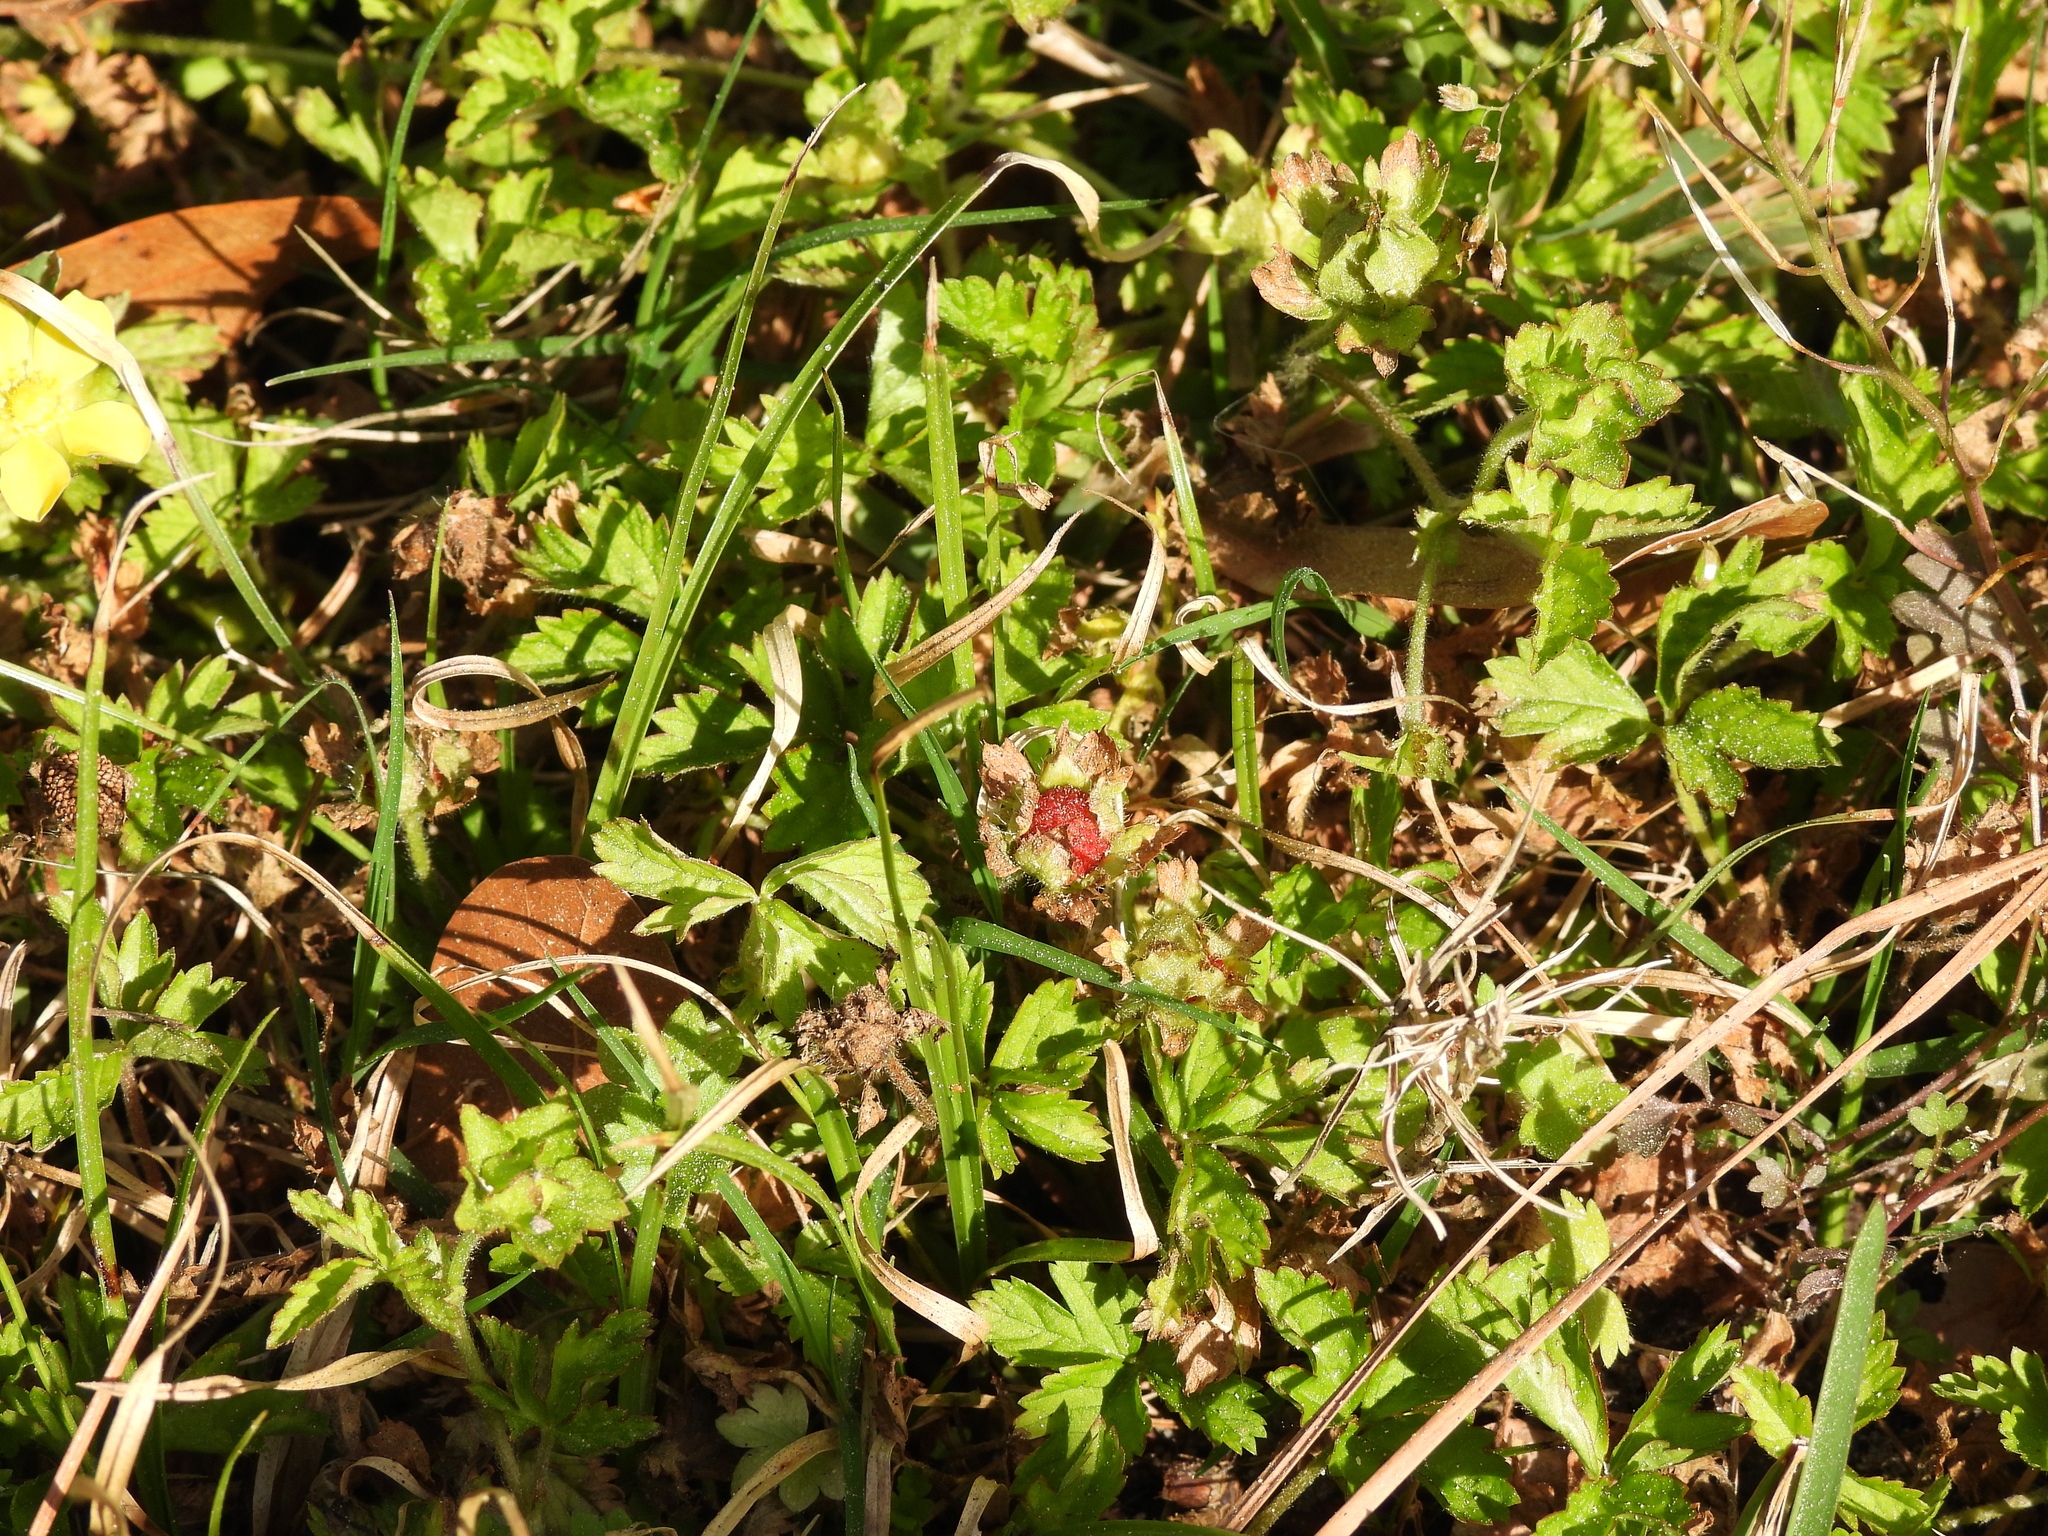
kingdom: Plantae
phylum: Tracheophyta
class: Magnoliopsida
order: Rosales
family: Rosaceae
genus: Potentilla
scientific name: Potentilla indica
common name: Yellow-flowered strawberry
